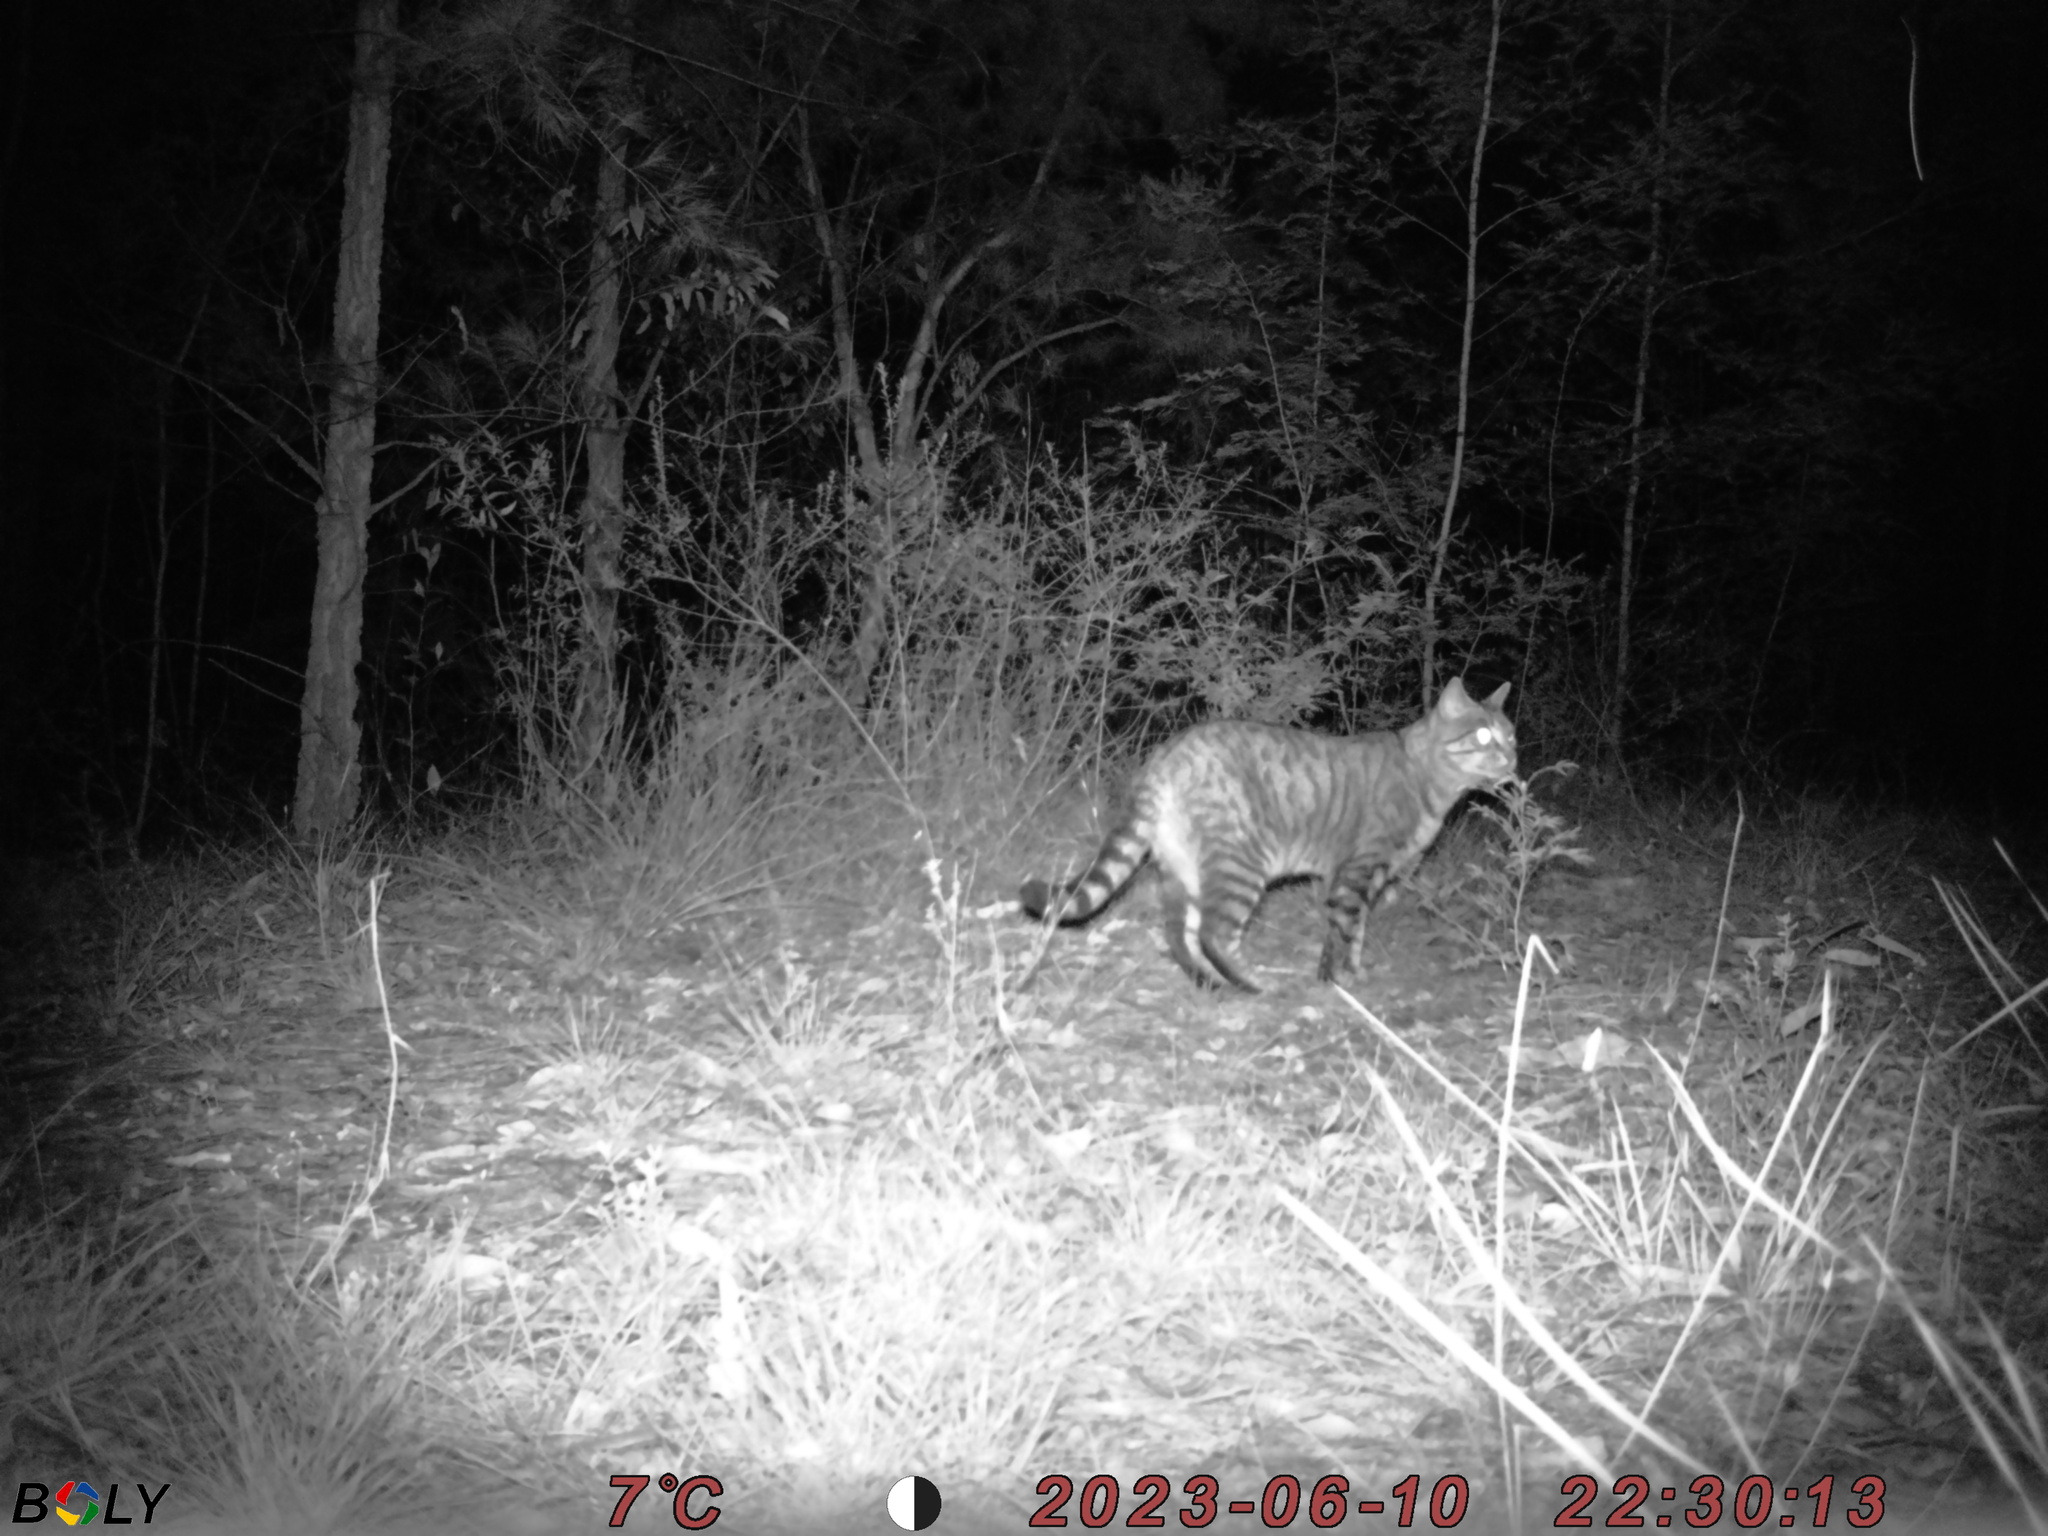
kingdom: Animalia
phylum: Chordata
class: Mammalia
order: Carnivora
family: Felidae
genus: Felis
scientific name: Felis catus
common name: Domestic cat
